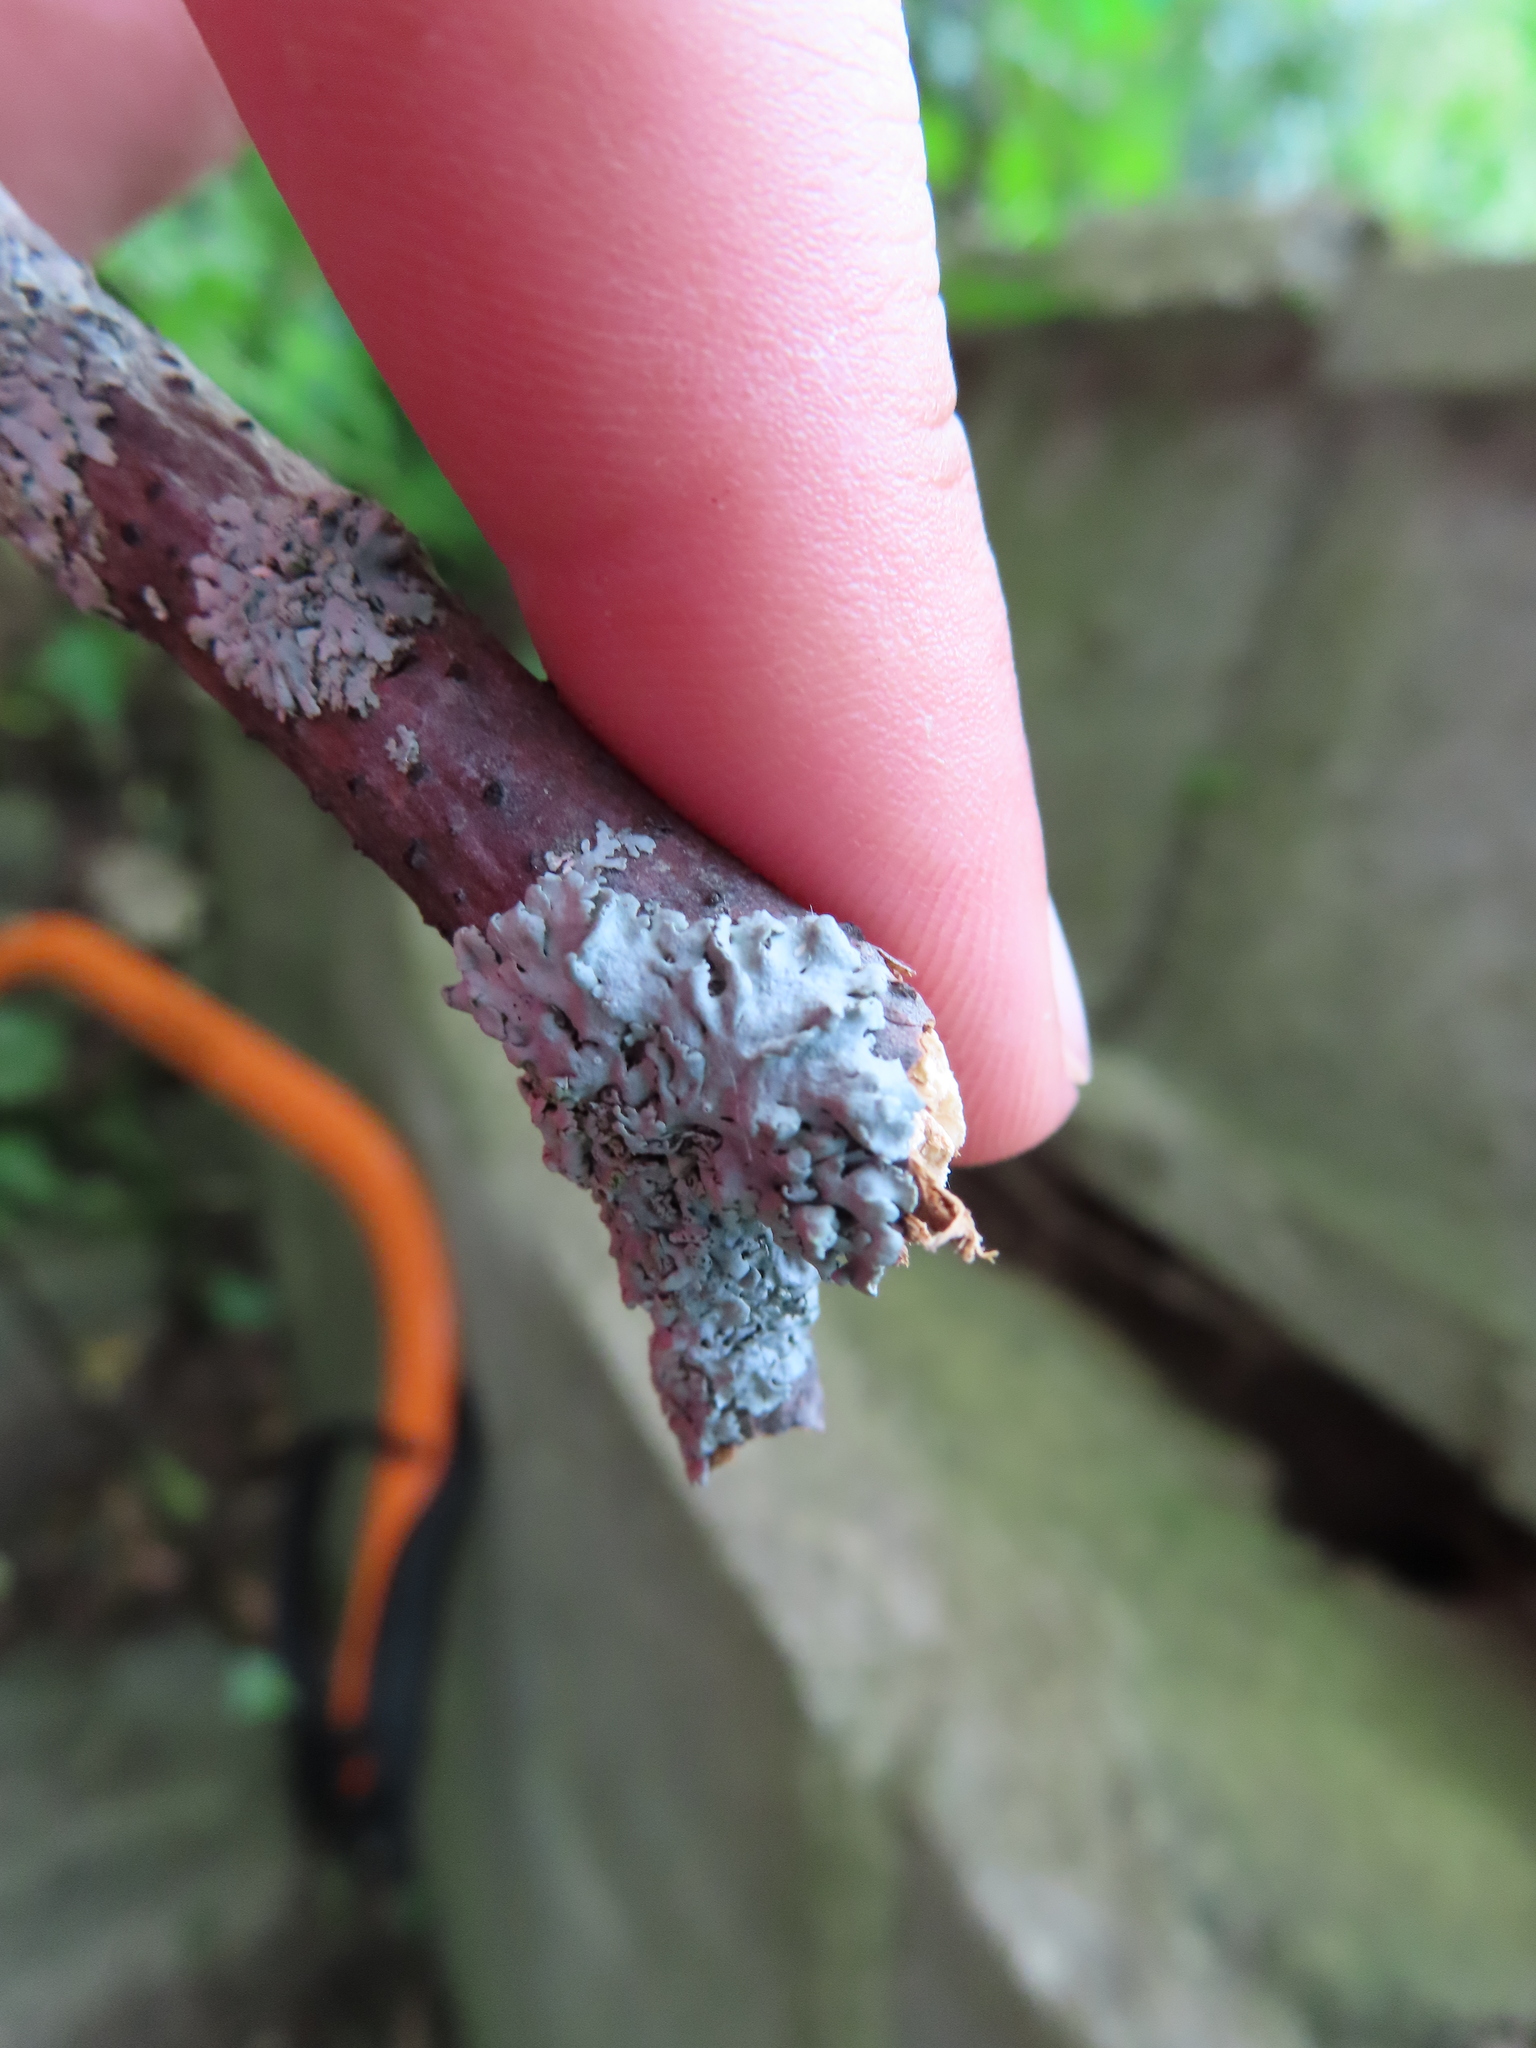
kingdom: Fungi
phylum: Ascomycota
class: Lecanoromycetes
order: Caliciales
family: Physciaceae
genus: Physcia
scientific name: Physcia
